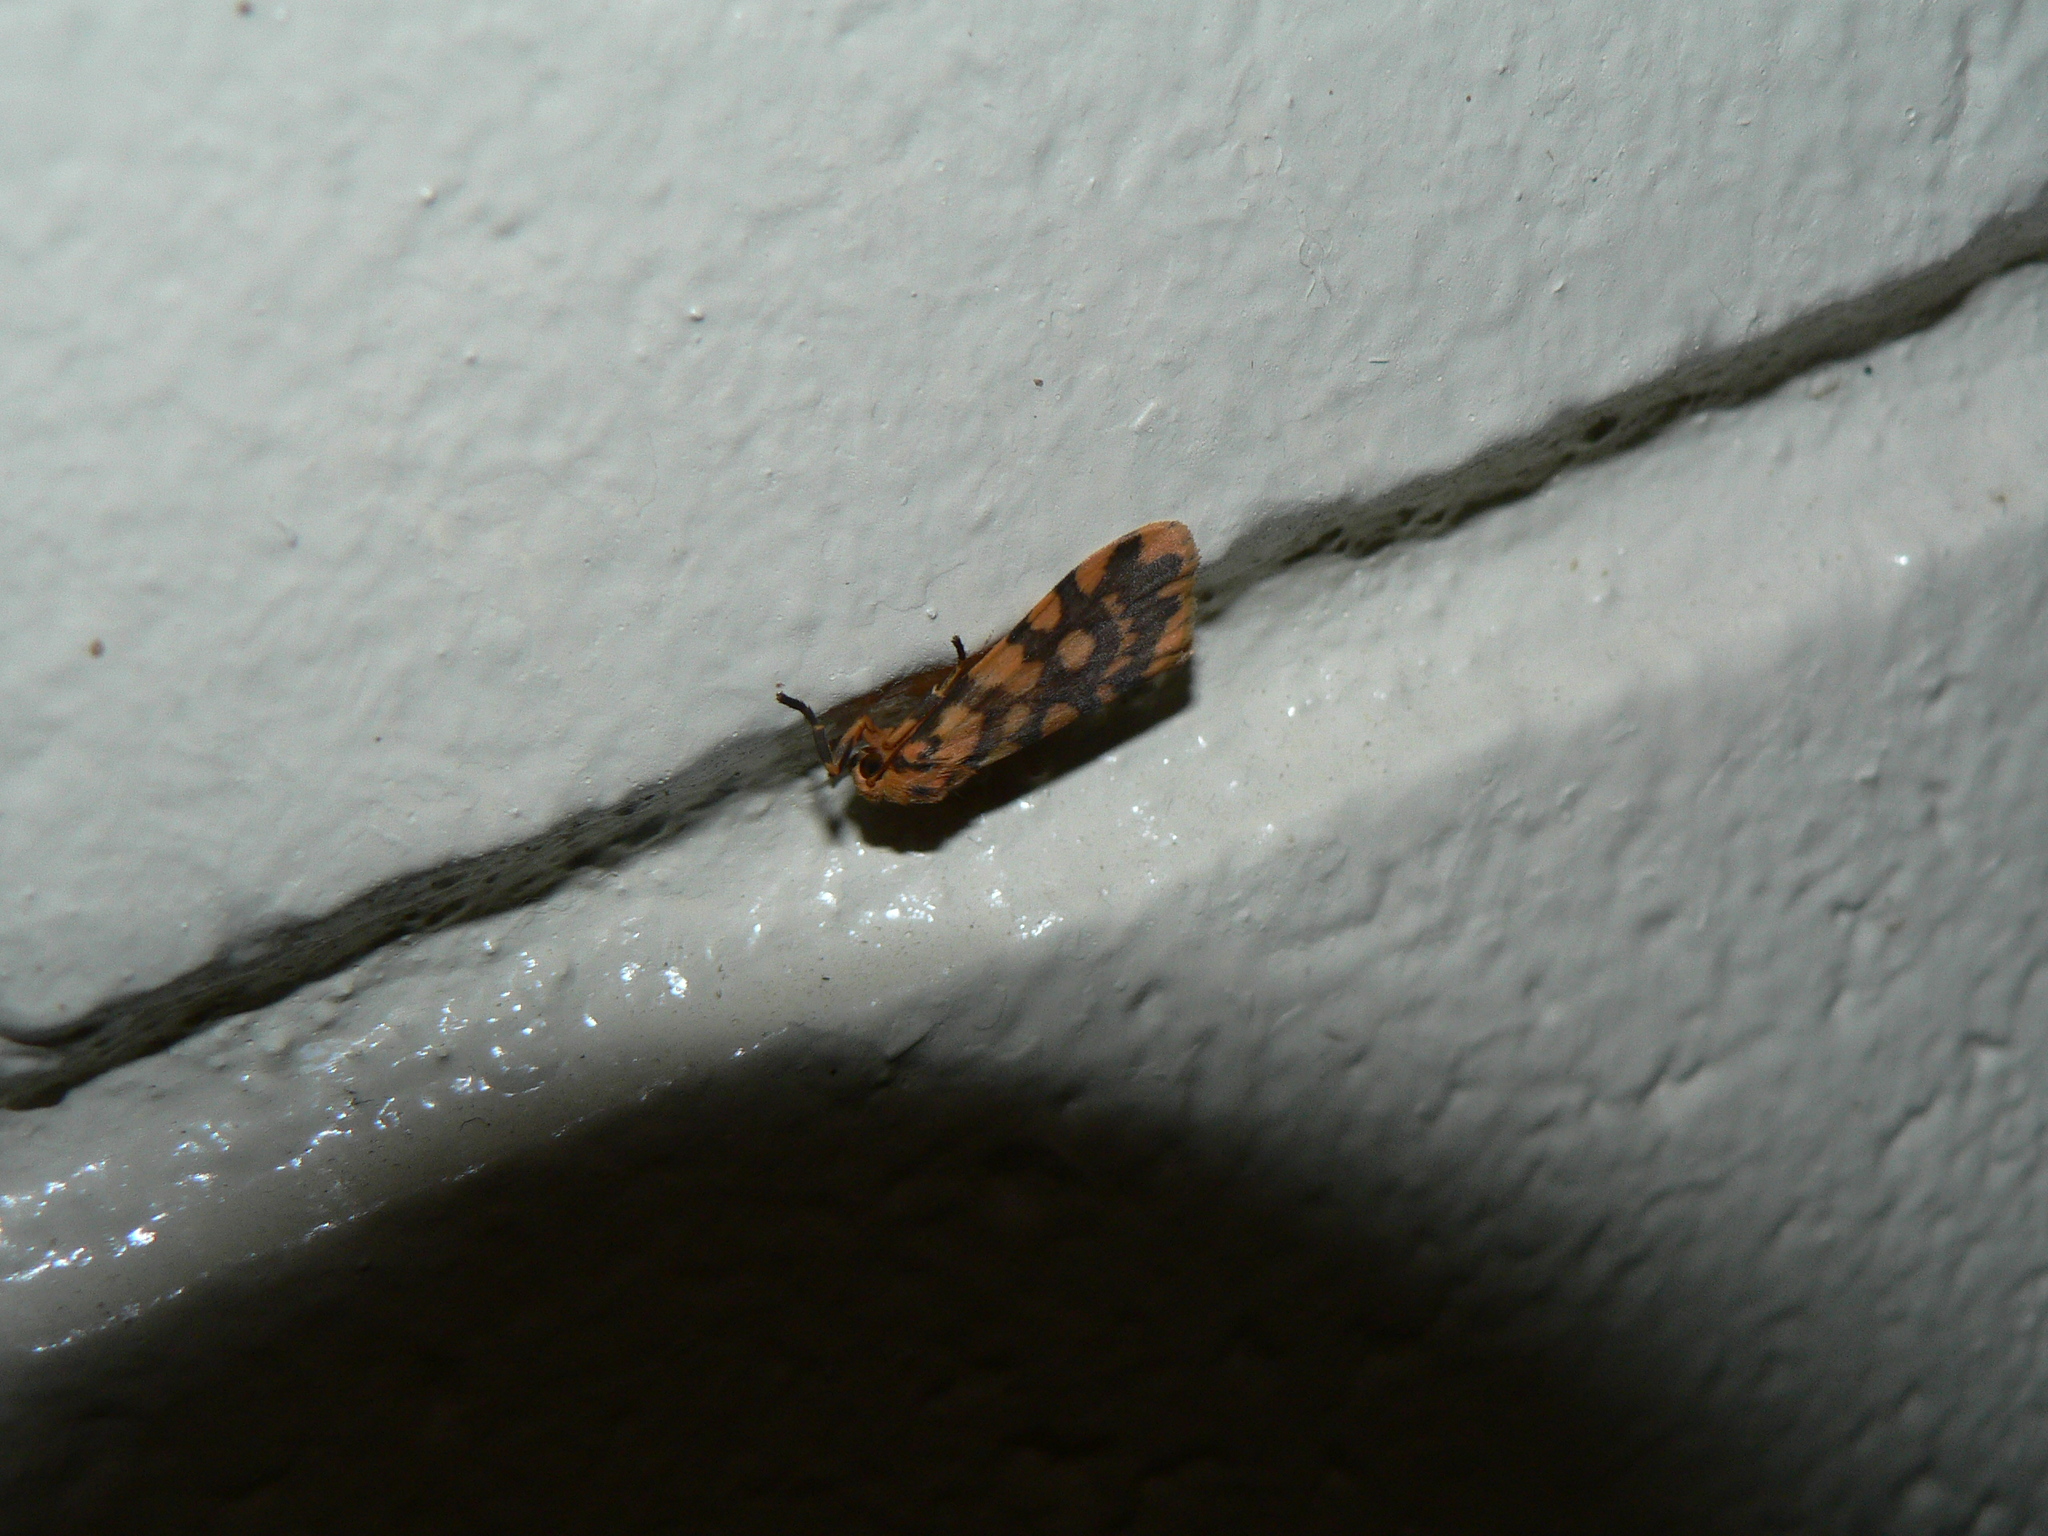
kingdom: Animalia
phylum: Arthropoda
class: Insecta
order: Lepidoptera
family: Erebidae
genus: Cyme
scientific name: Cyme quadrilineata
